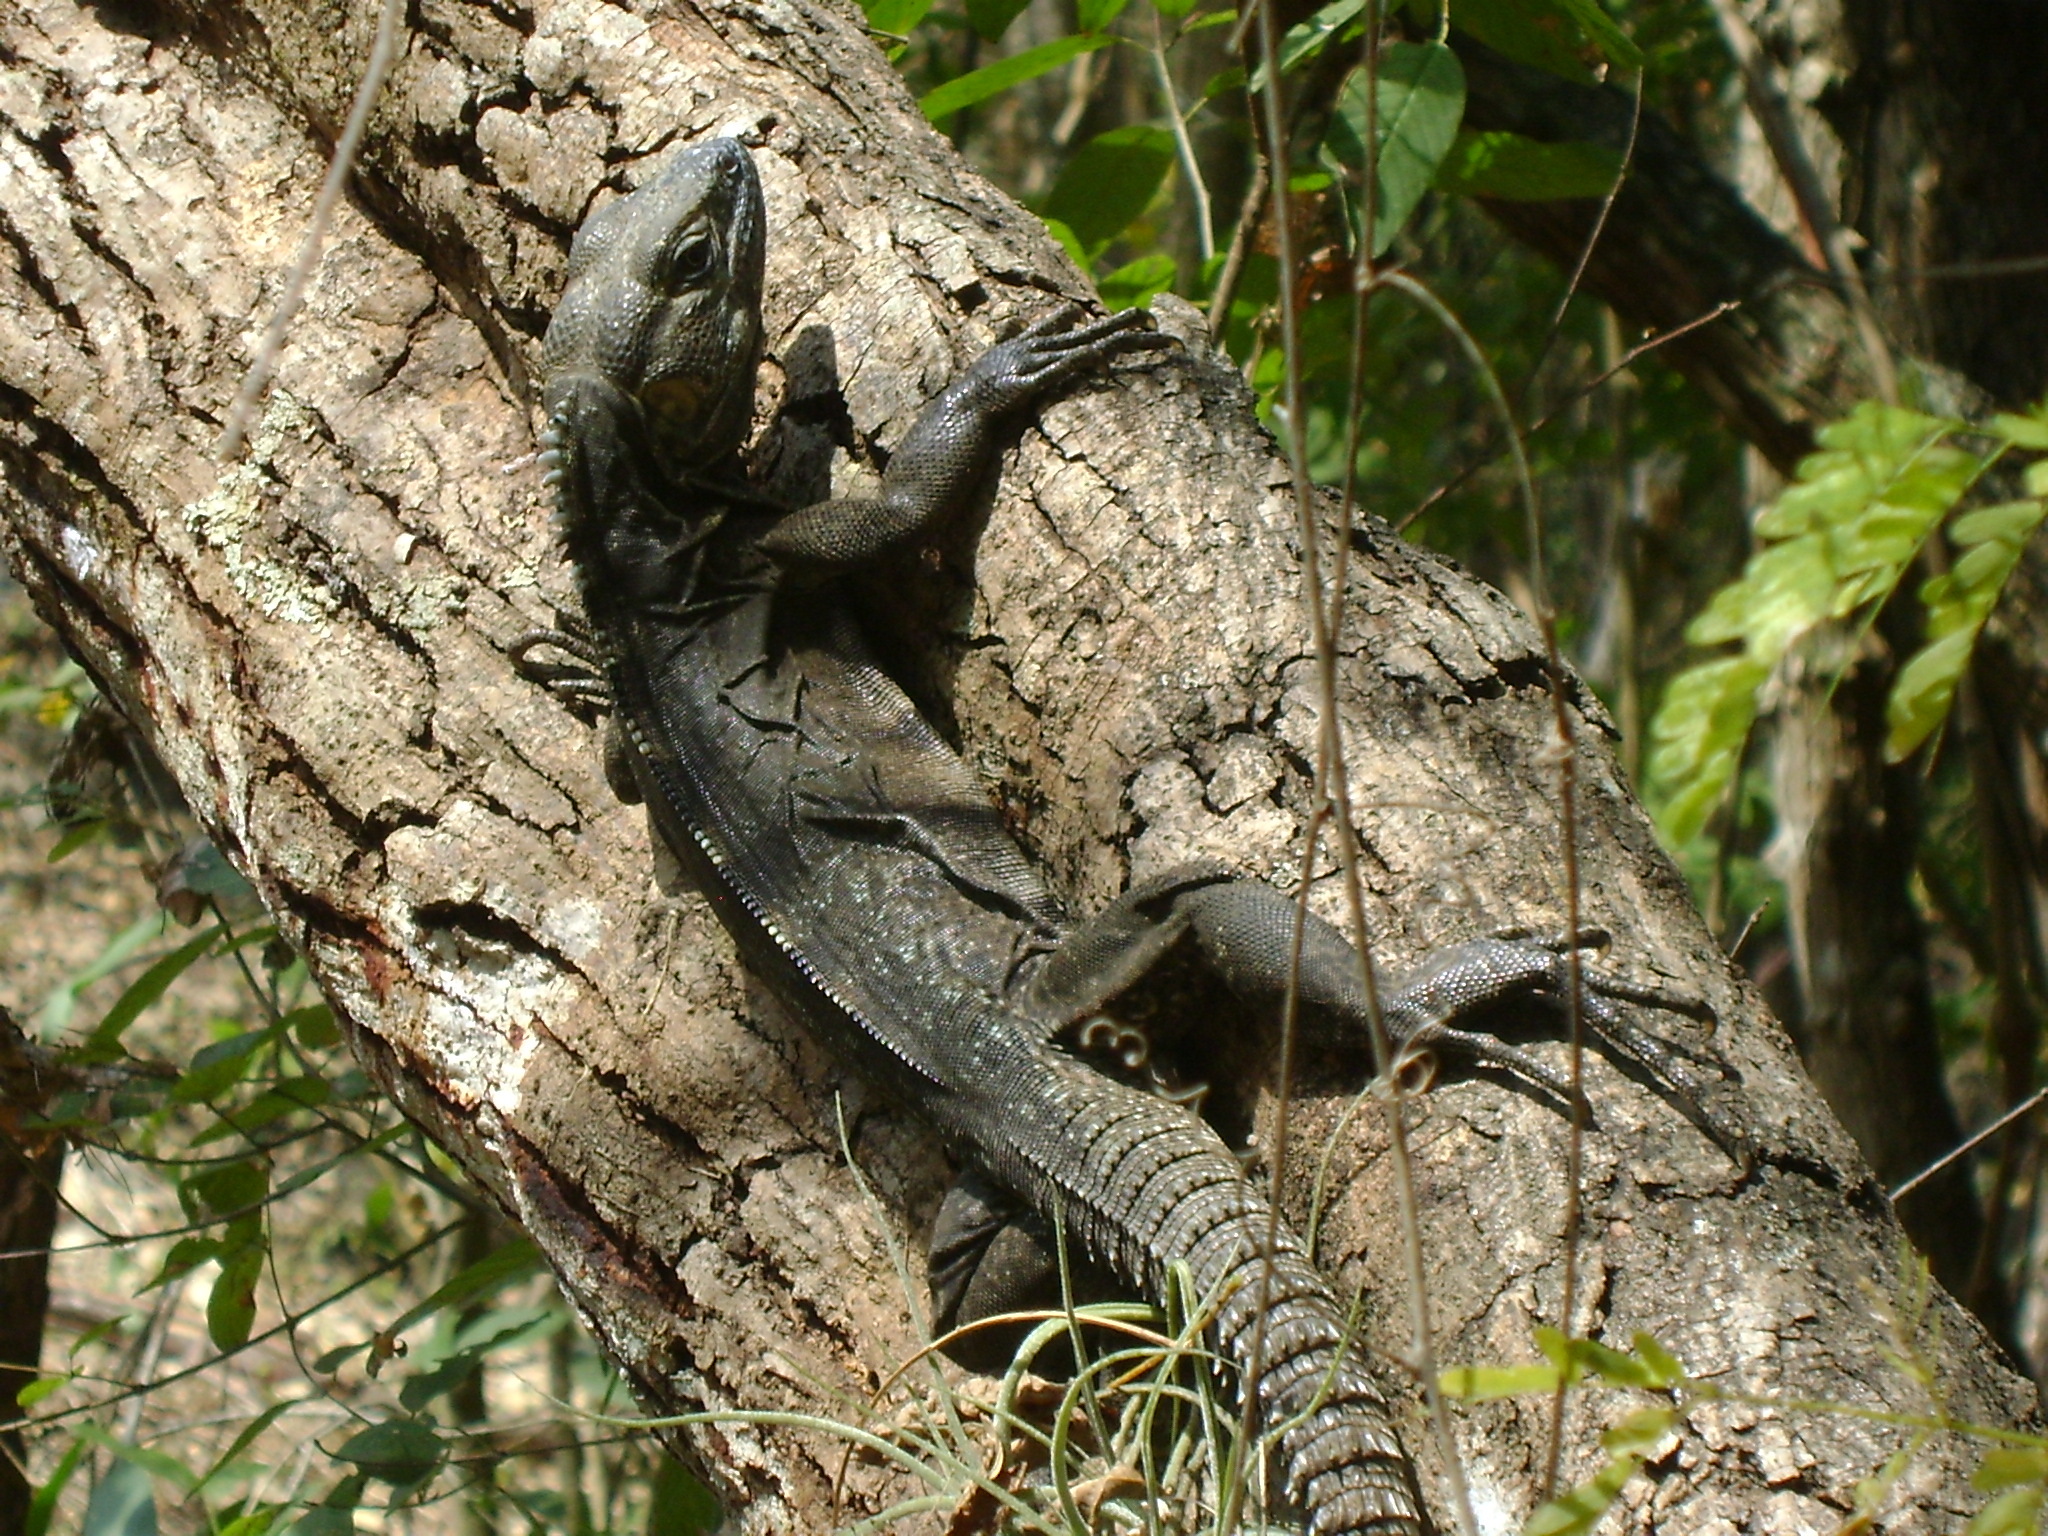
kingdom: Animalia
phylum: Chordata
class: Squamata
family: Iguanidae
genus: Ctenosaura
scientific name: Ctenosaura acanthura
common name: Northeastern spinytail iguana
